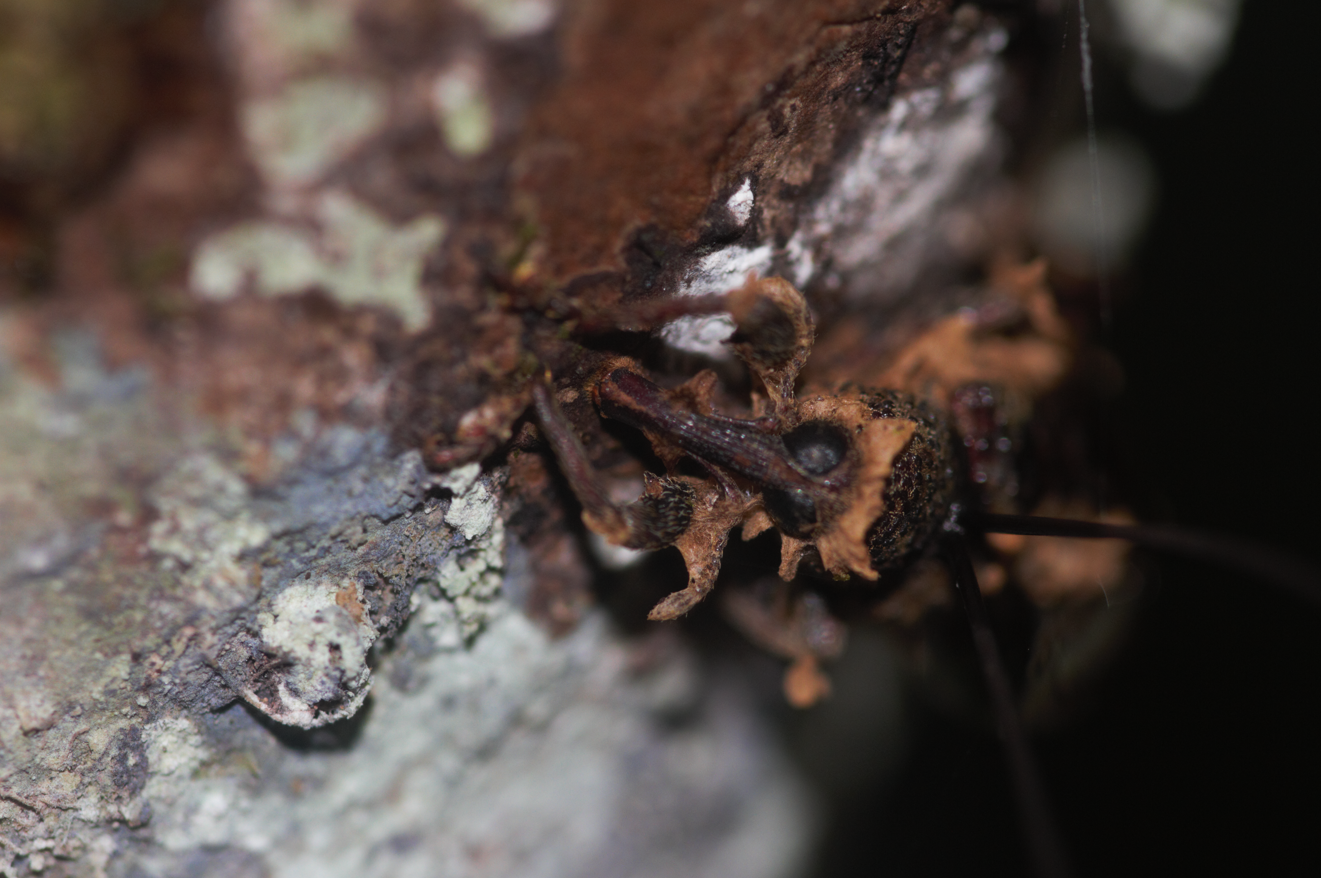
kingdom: Fungi
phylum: Ascomycota
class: Sordariomycetes
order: Hypocreales
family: Ophiocordycipitaceae
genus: Ophiocordyceps
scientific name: Ophiocordyceps curculionum
